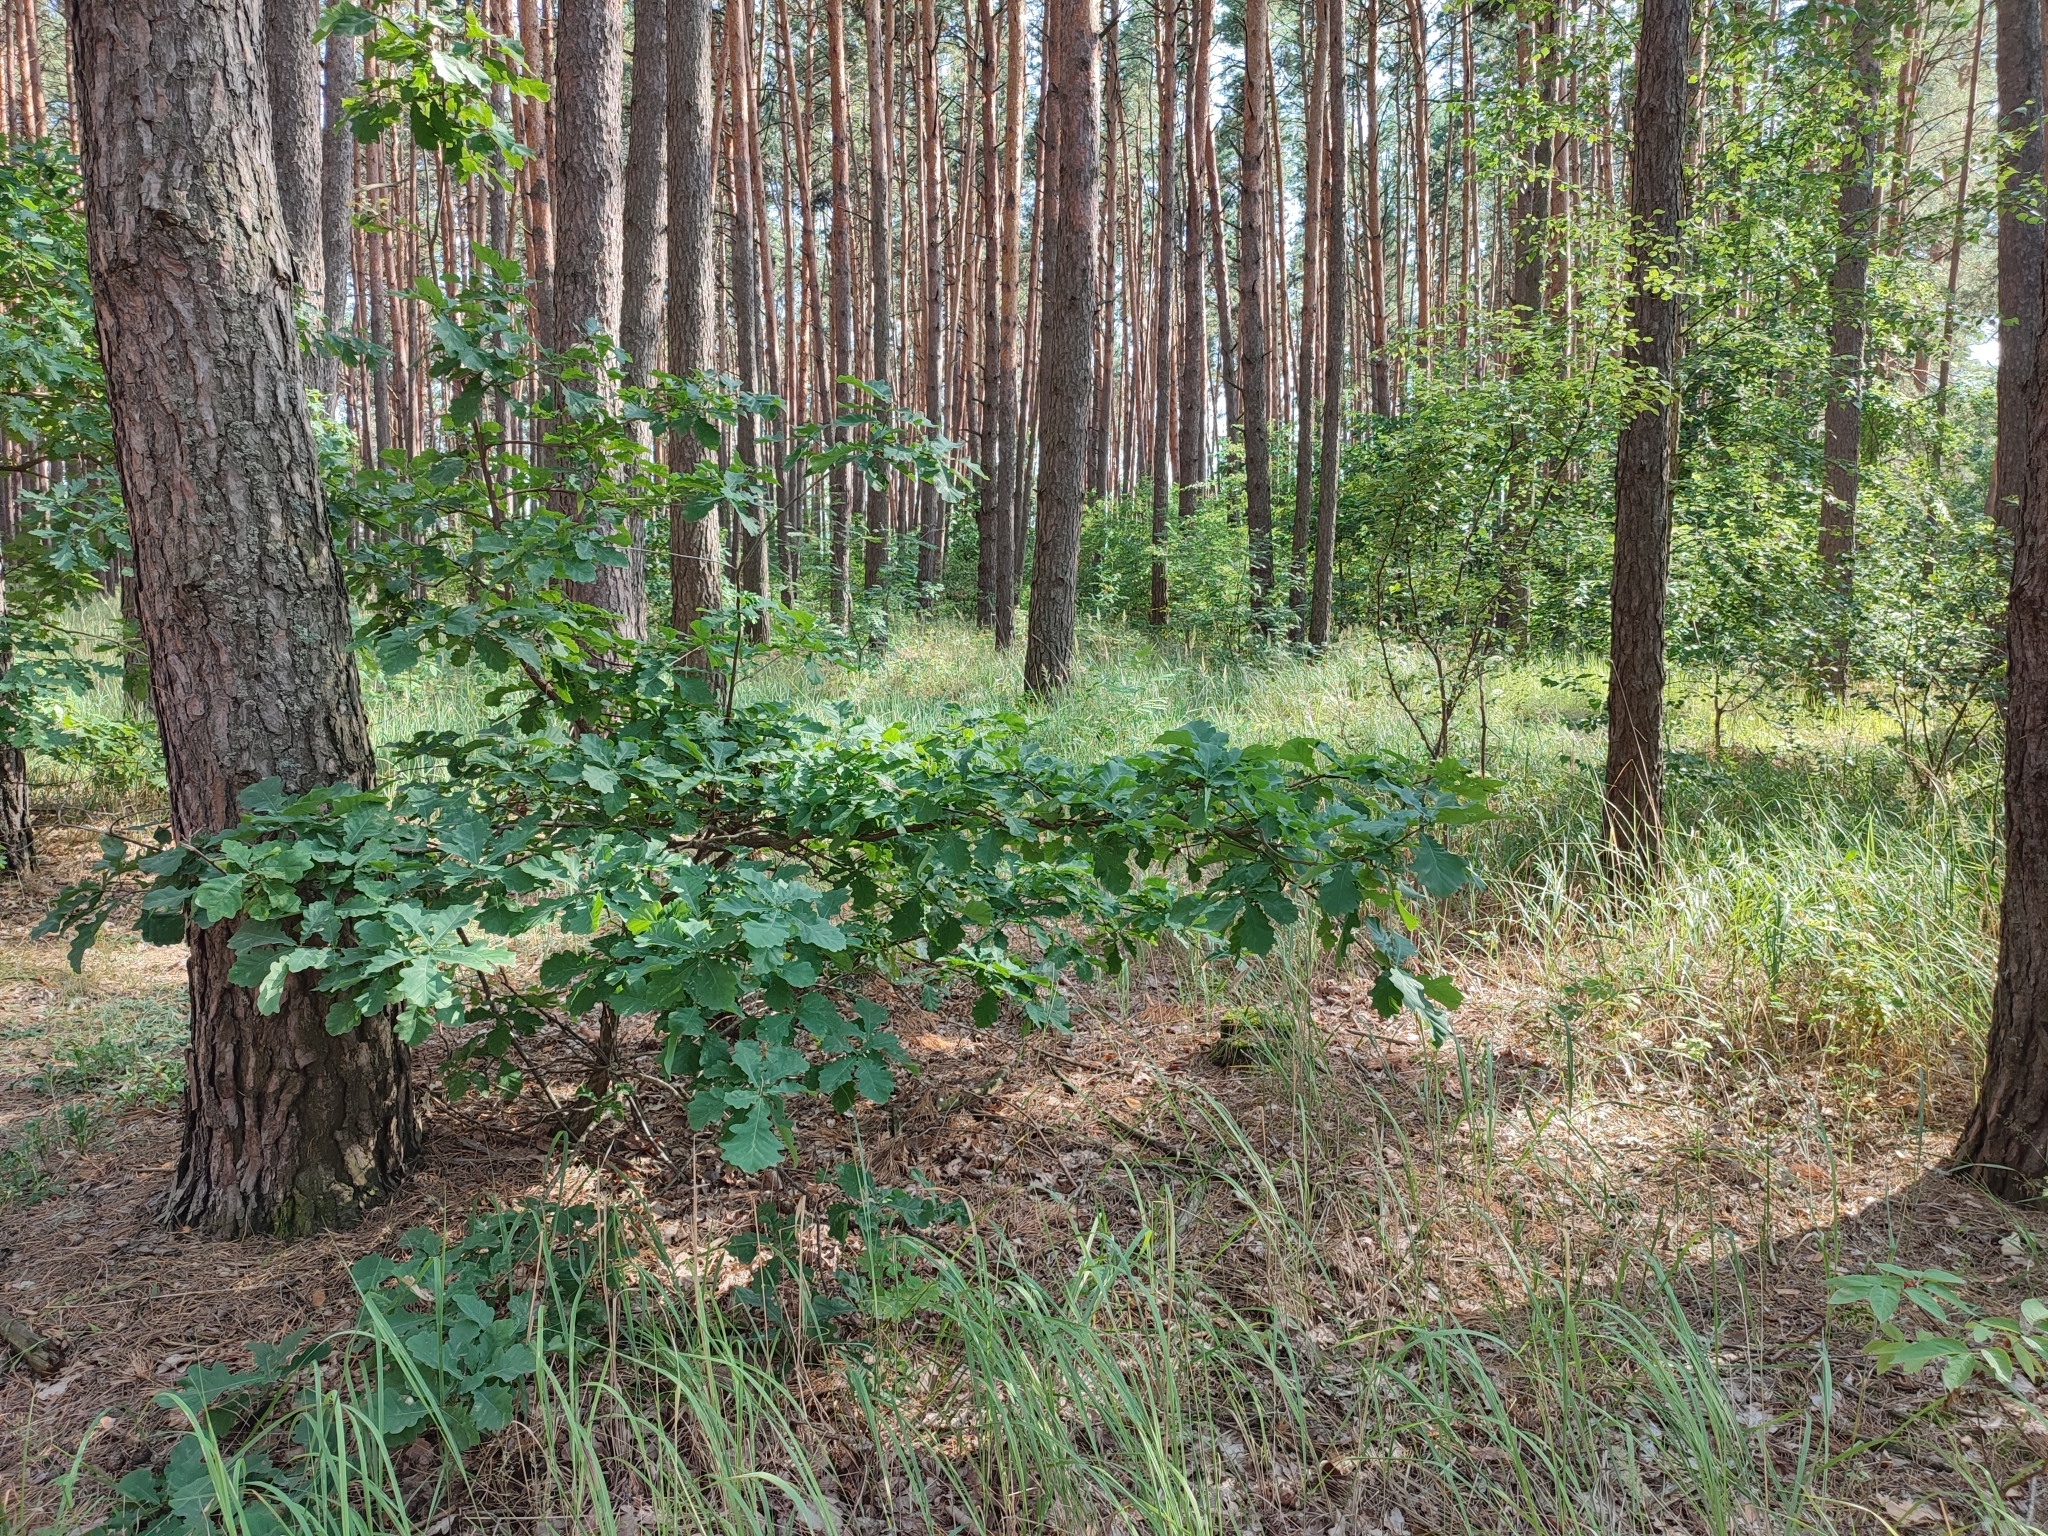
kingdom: Plantae
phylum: Tracheophyta
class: Magnoliopsida
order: Fagales
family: Fagaceae
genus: Quercus
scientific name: Quercus robur
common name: Pedunculate oak
